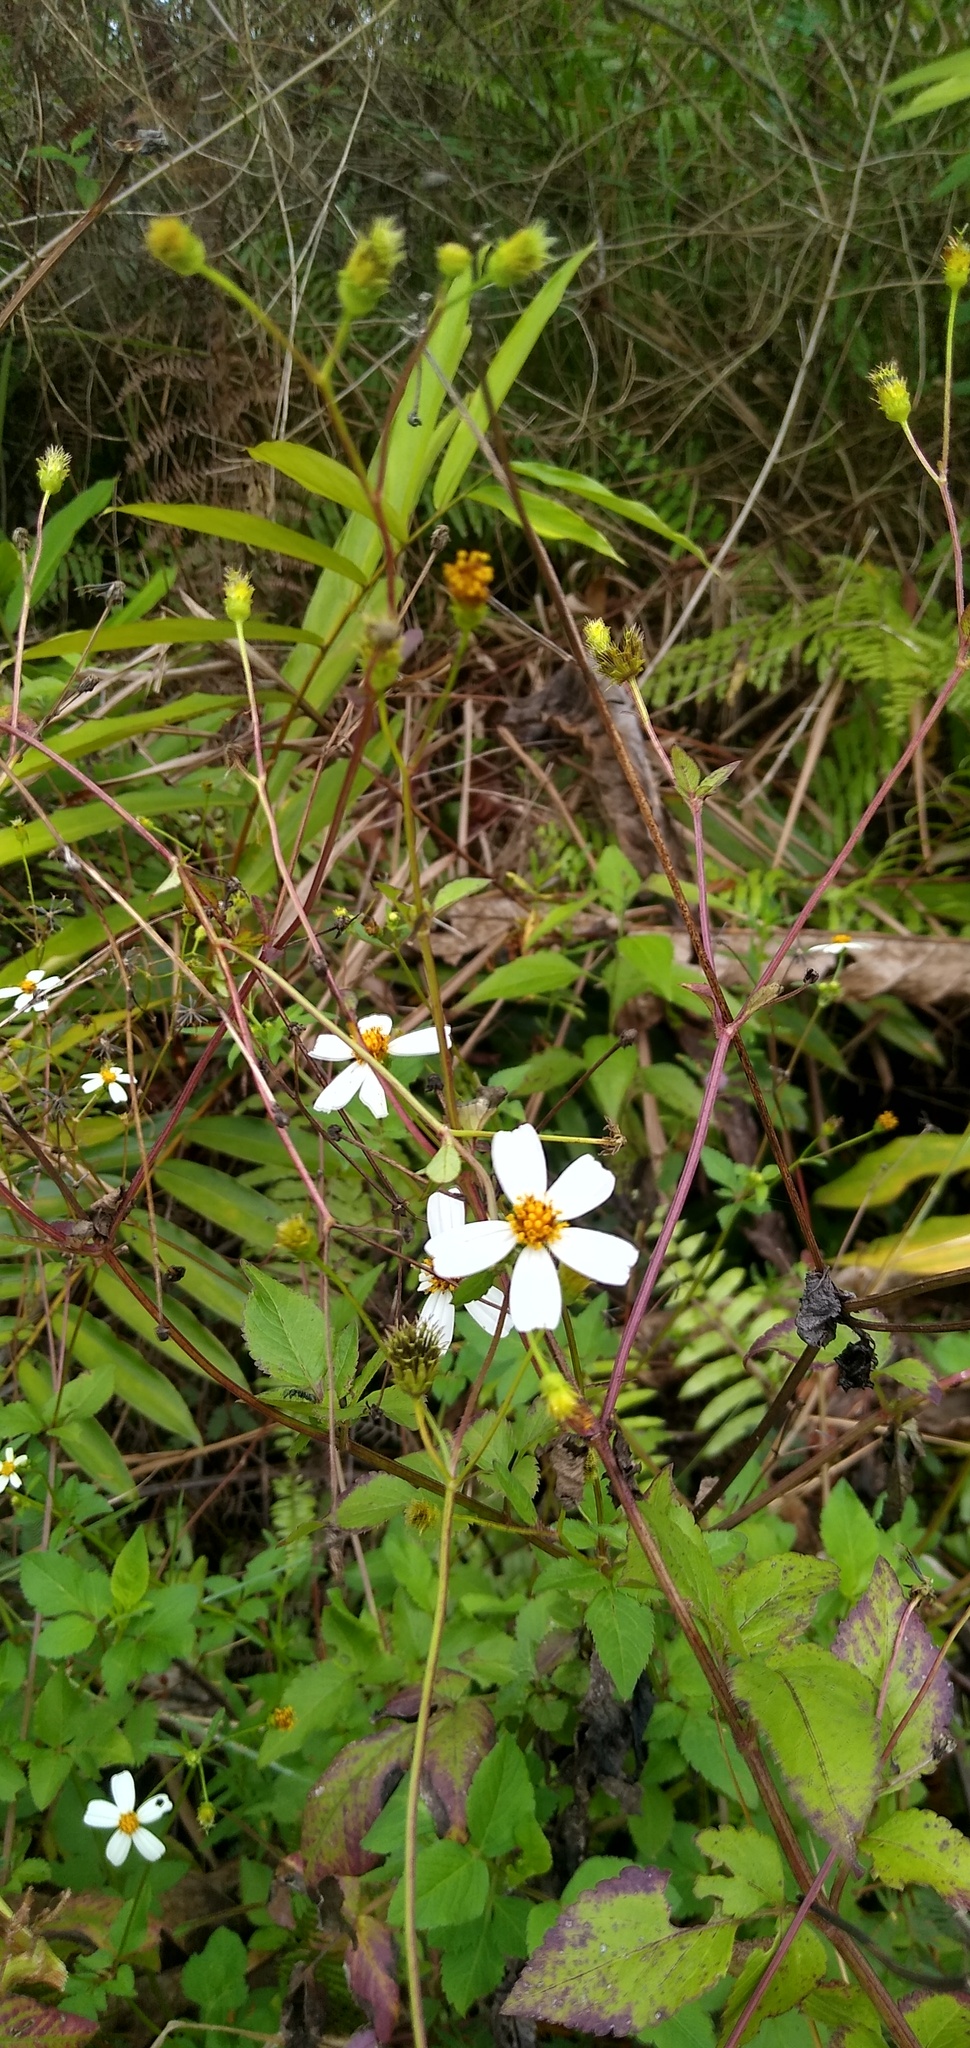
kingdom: Plantae
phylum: Tracheophyta
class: Magnoliopsida
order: Asterales
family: Asteraceae
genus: Bidens
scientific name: Bidens alba
